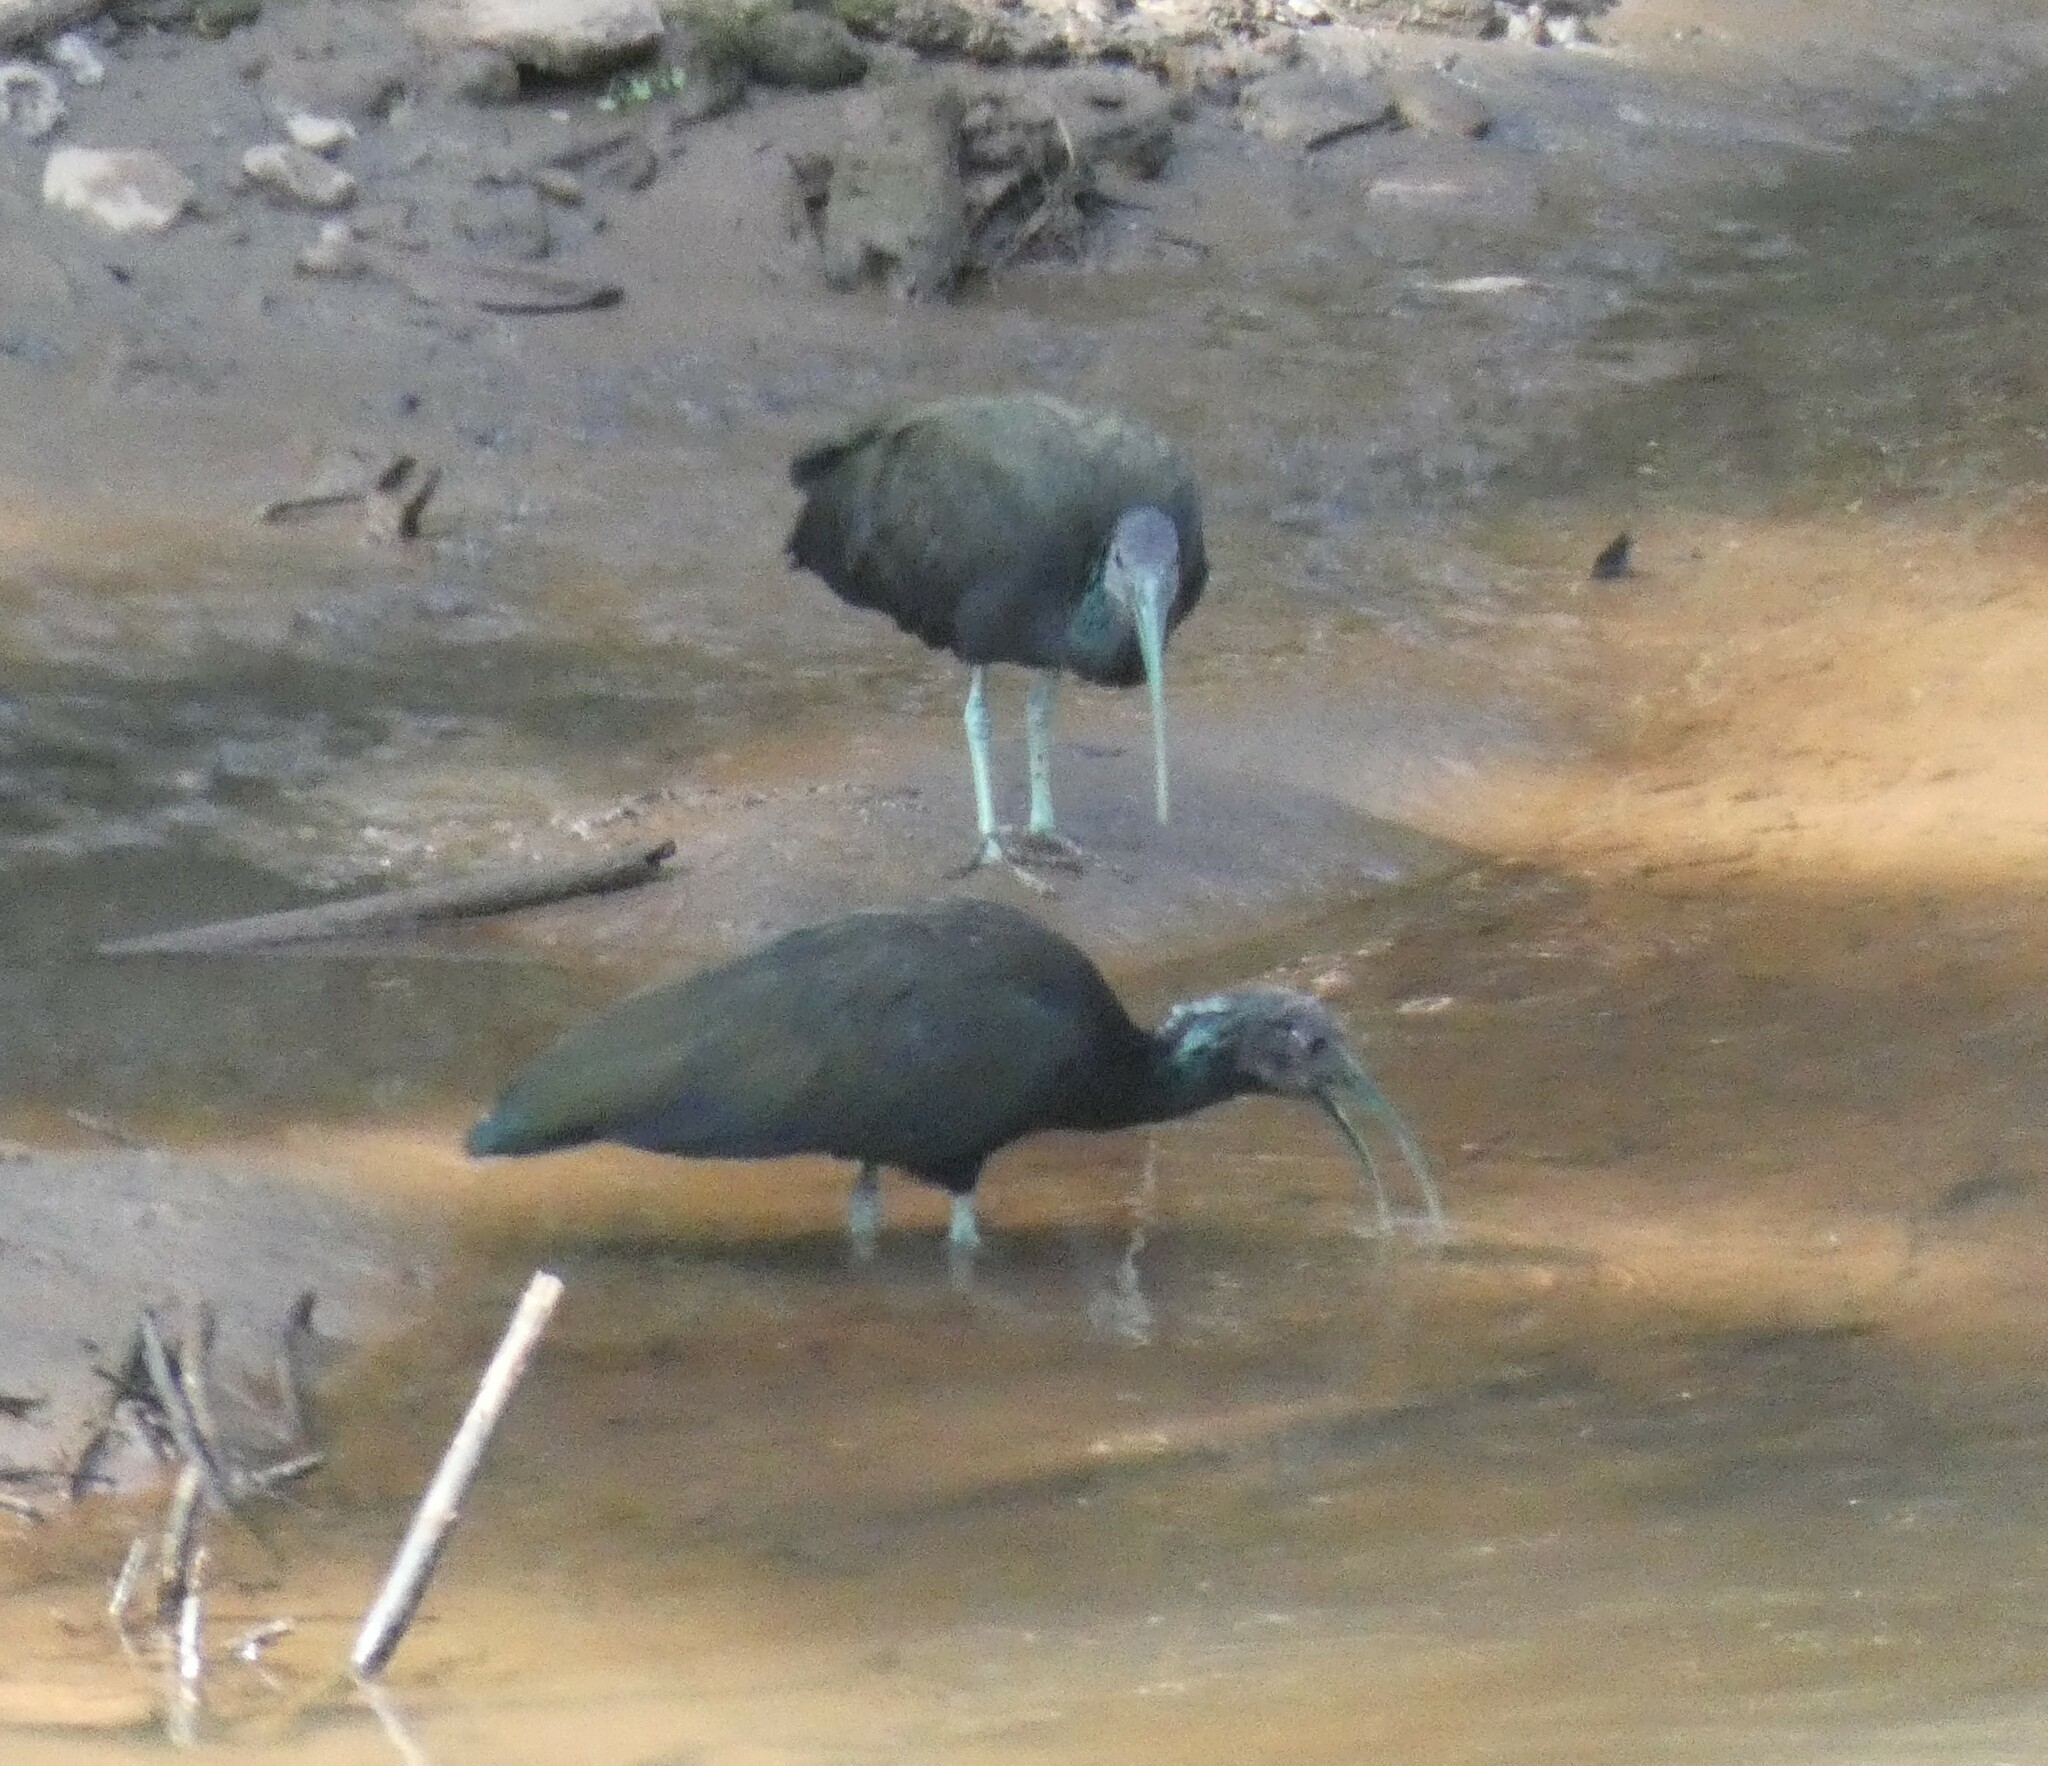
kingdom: Animalia
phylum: Chordata
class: Aves
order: Pelecaniformes
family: Threskiornithidae
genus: Mesembrinibis
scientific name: Mesembrinibis cayennensis
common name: Green ibis
